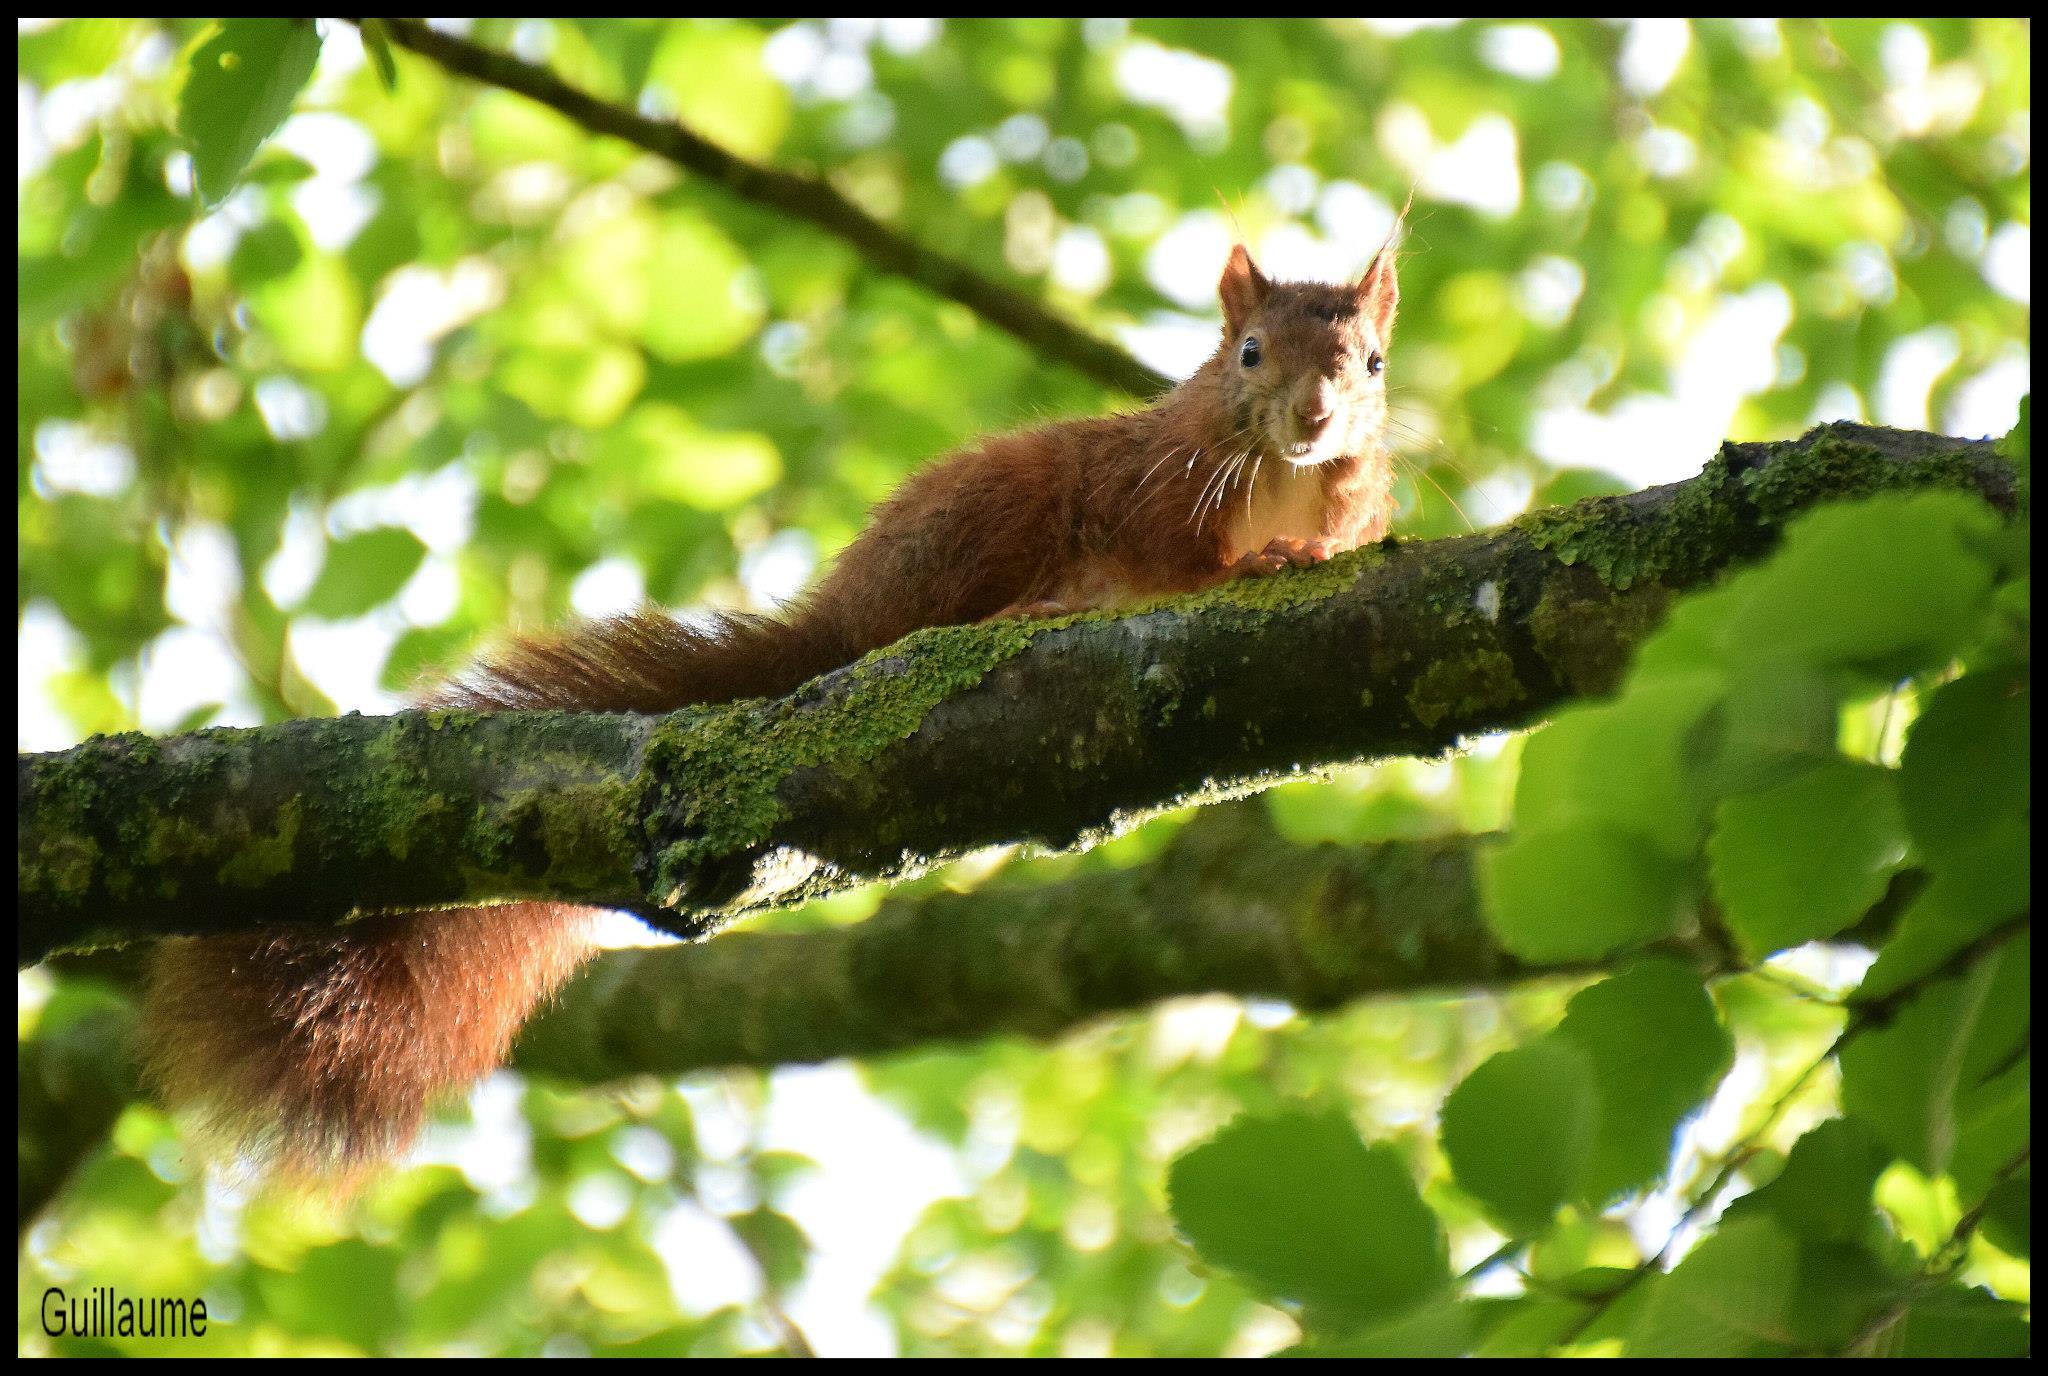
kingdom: Animalia
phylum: Chordata
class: Mammalia
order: Rodentia
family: Sciuridae
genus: Sciurus
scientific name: Sciurus vulgaris
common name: Eurasian red squirrel
